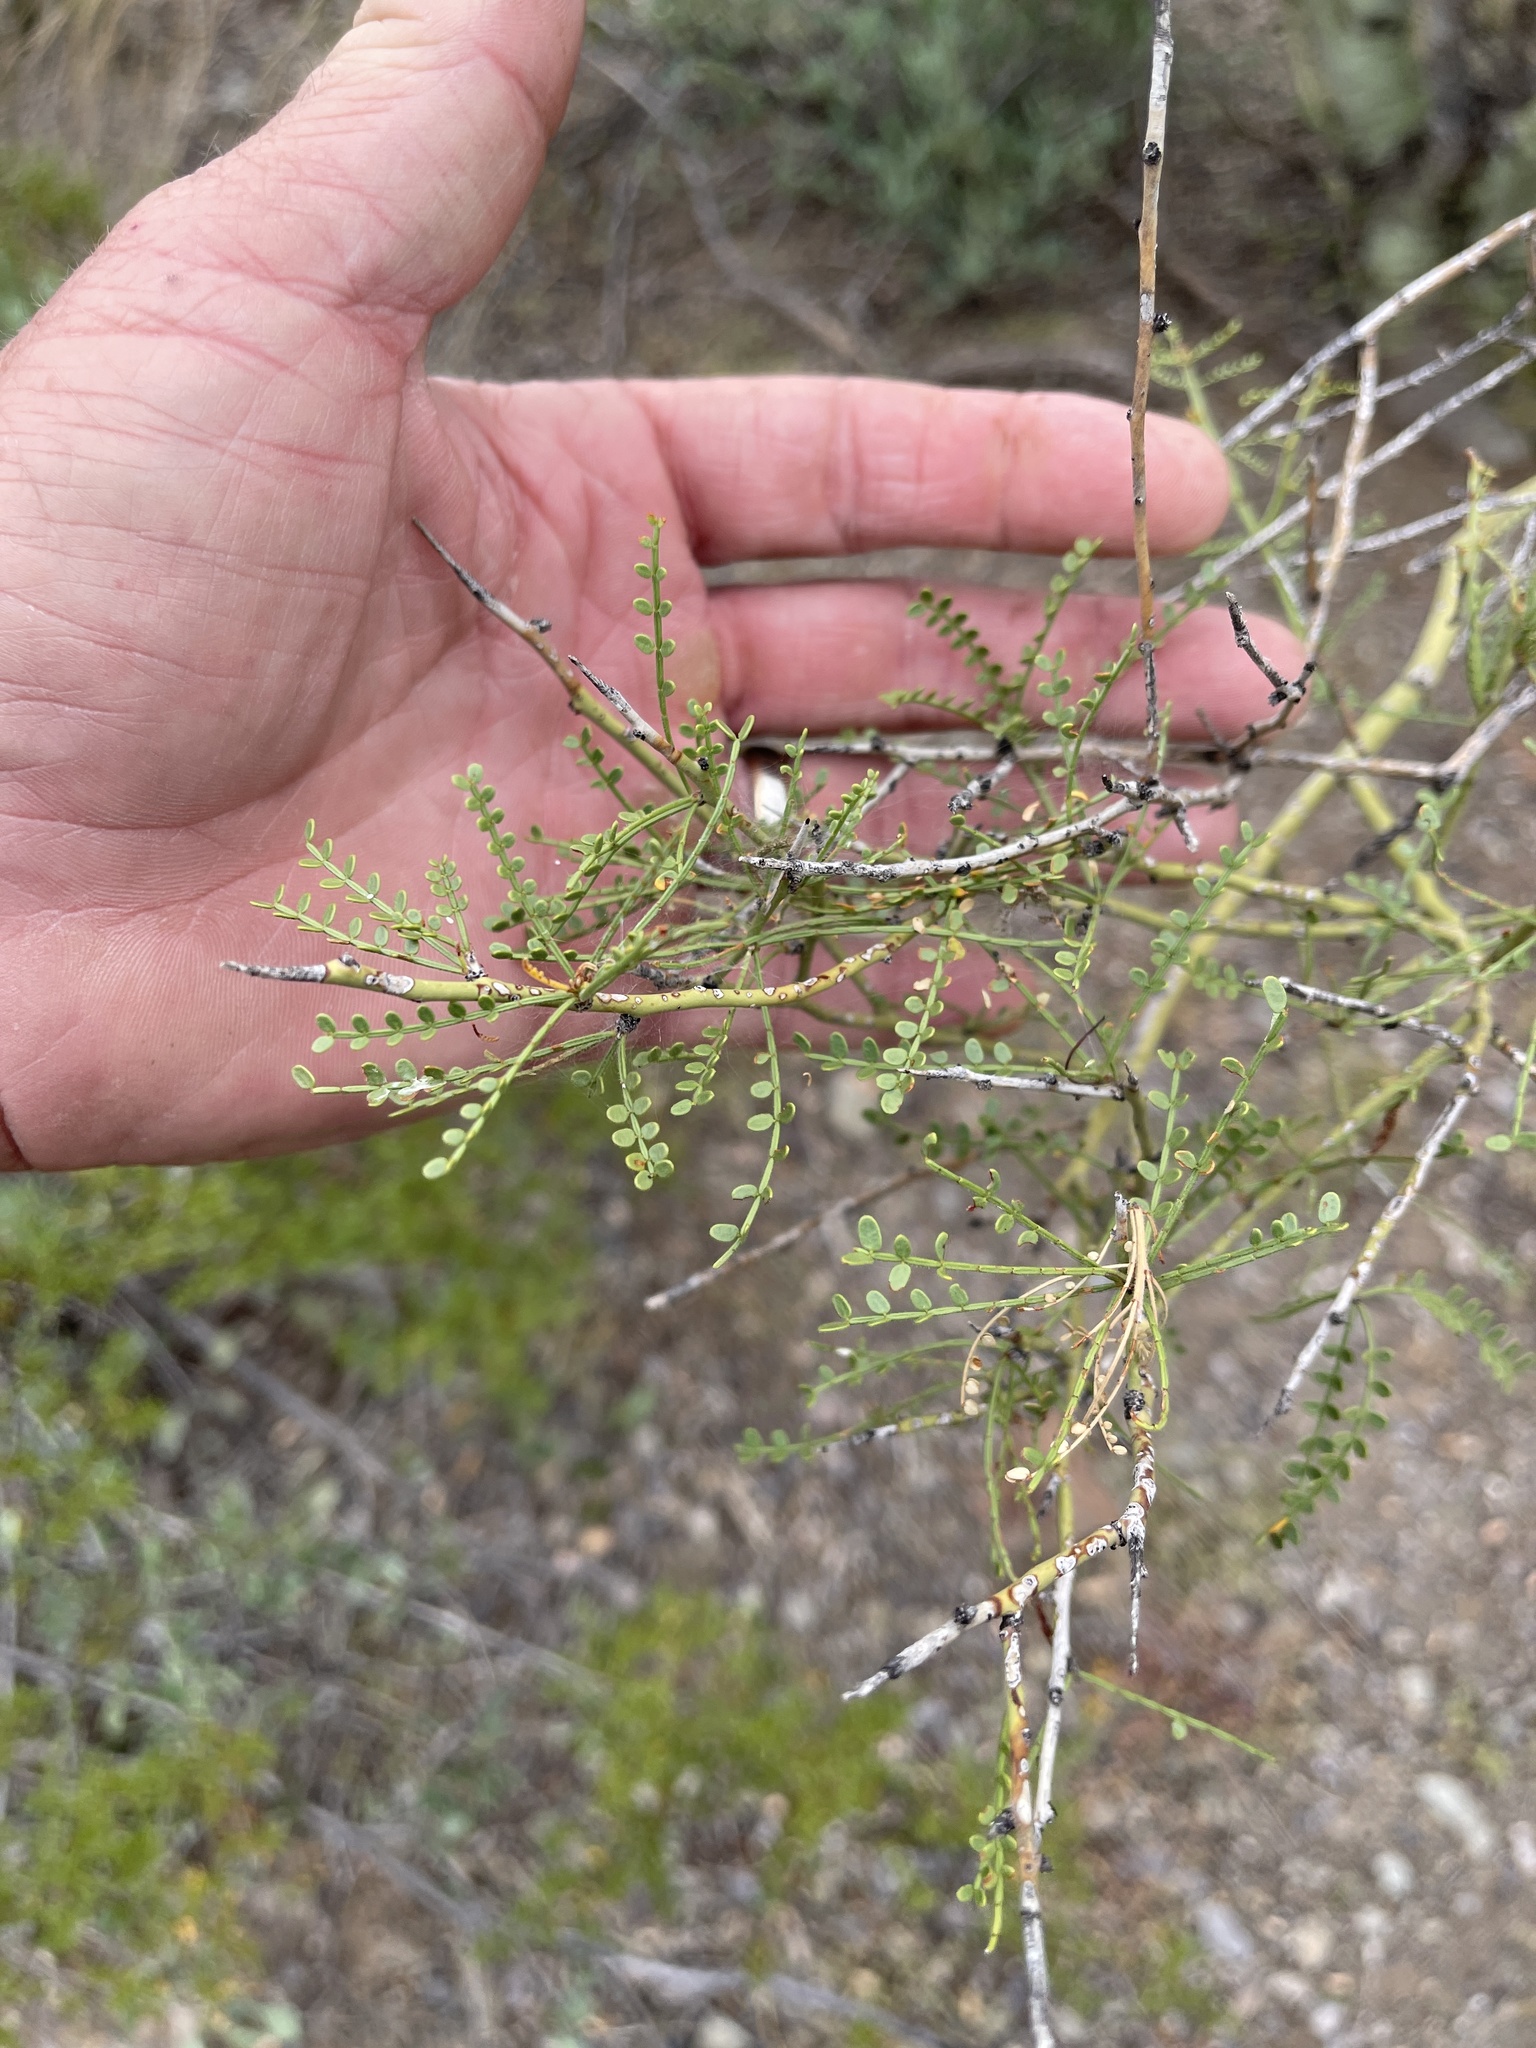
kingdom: Plantae
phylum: Tracheophyta
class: Magnoliopsida
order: Fabales
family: Fabaceae
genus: Parkinsonia
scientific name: Parkinsonia microphylla
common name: Yellow paloverde
